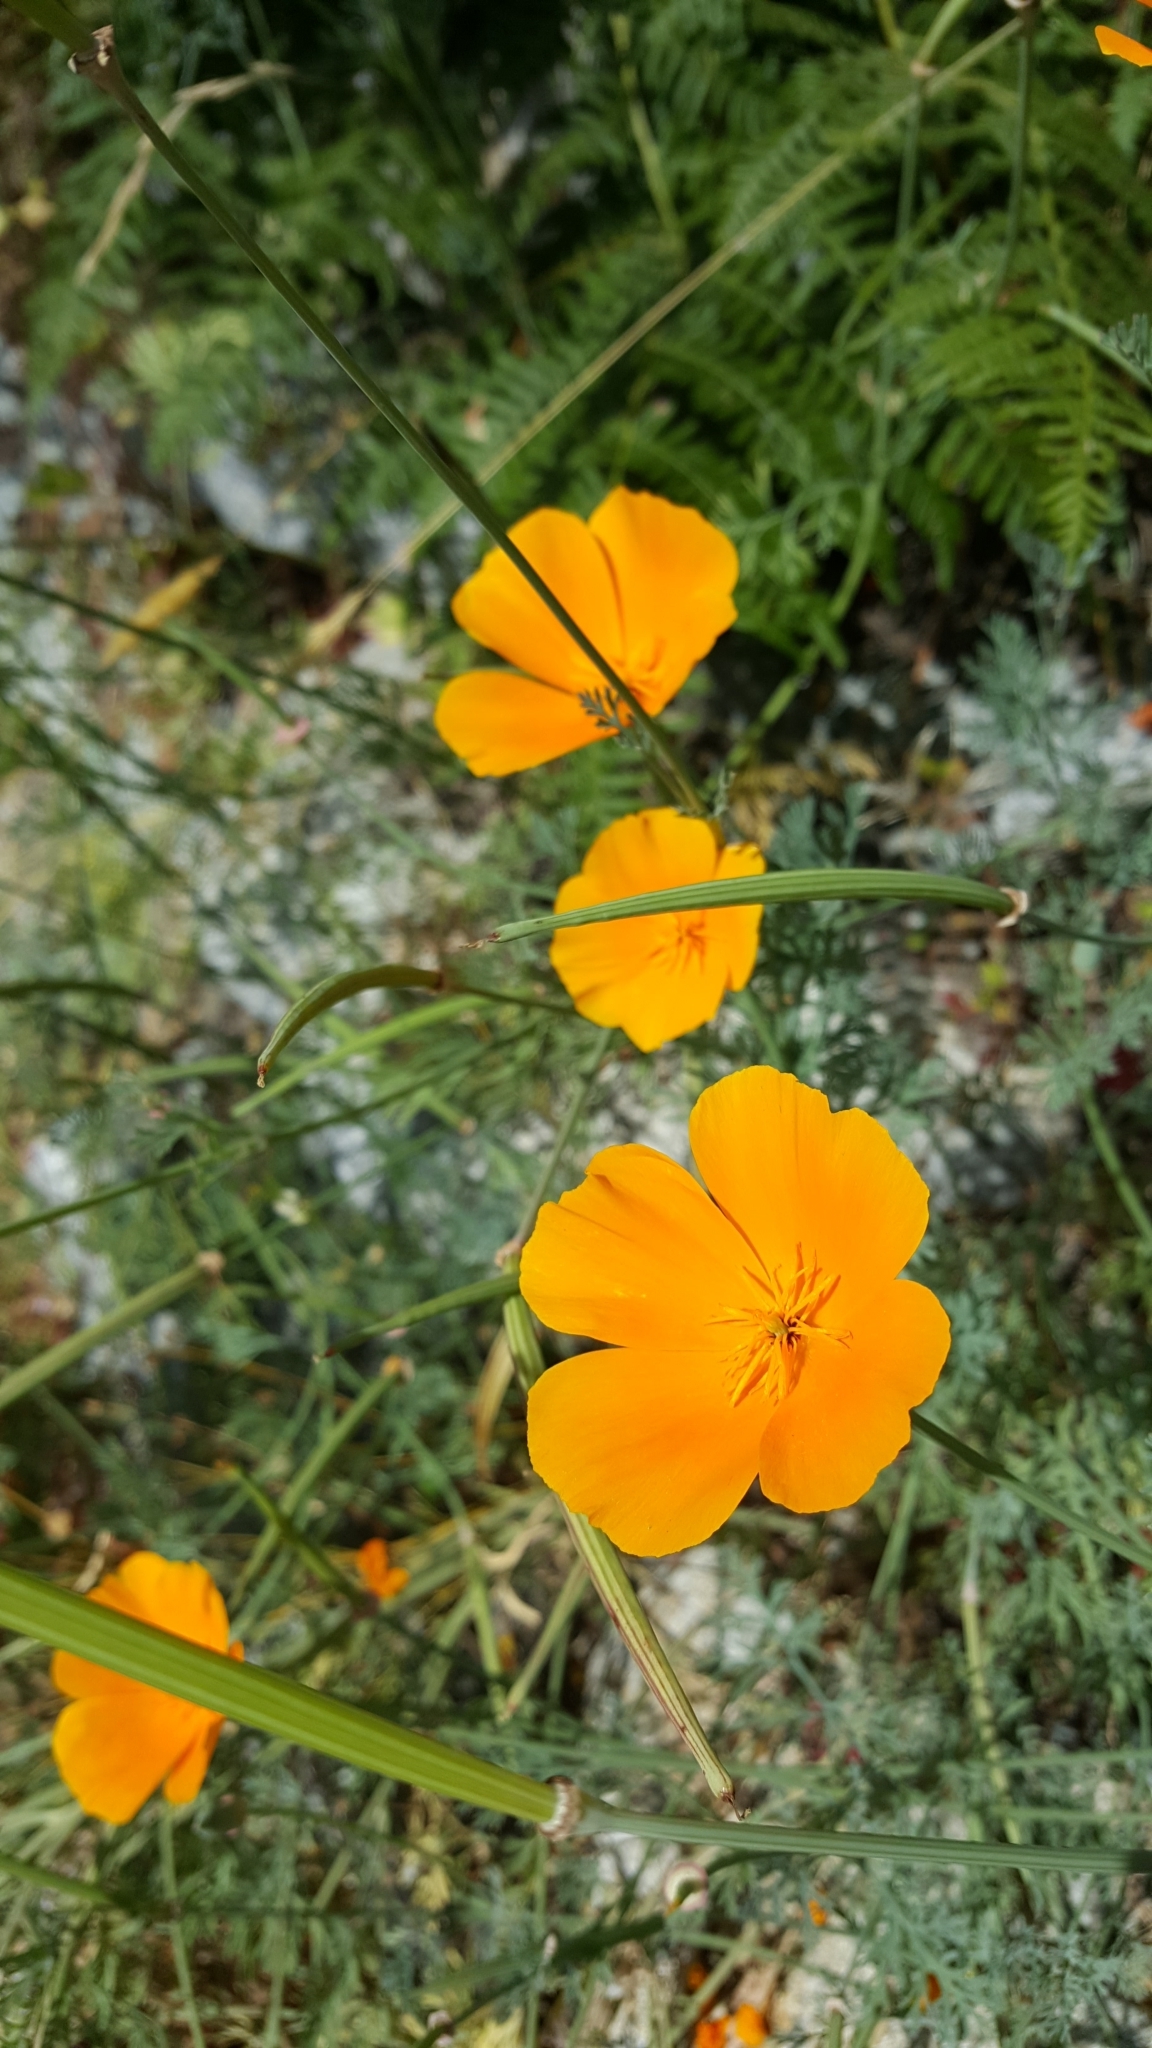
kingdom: Plantae
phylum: Tracheophyta
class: Magnoliopsida
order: Ranunculales
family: Papaveraceae
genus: Eschscholzia
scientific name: Eschscholzia californica
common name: California poppy
